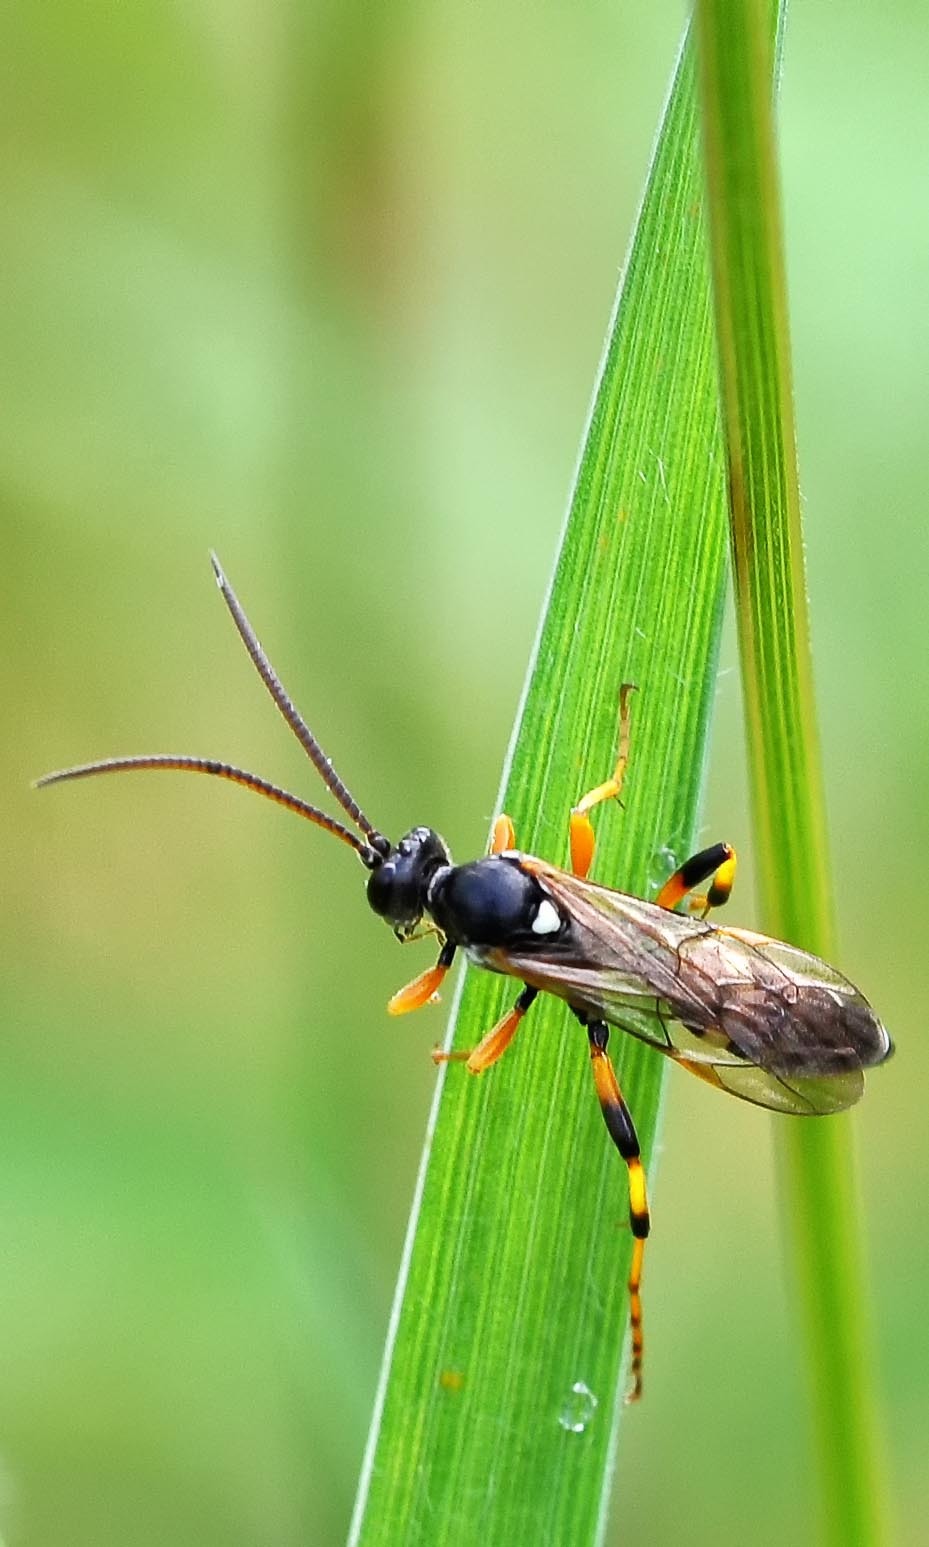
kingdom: Animalia
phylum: Arthropoda
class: Insecta
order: Hymenoptera
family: Ichneumonidae
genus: Ichneumon
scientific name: Ichneumon sarcitorius
